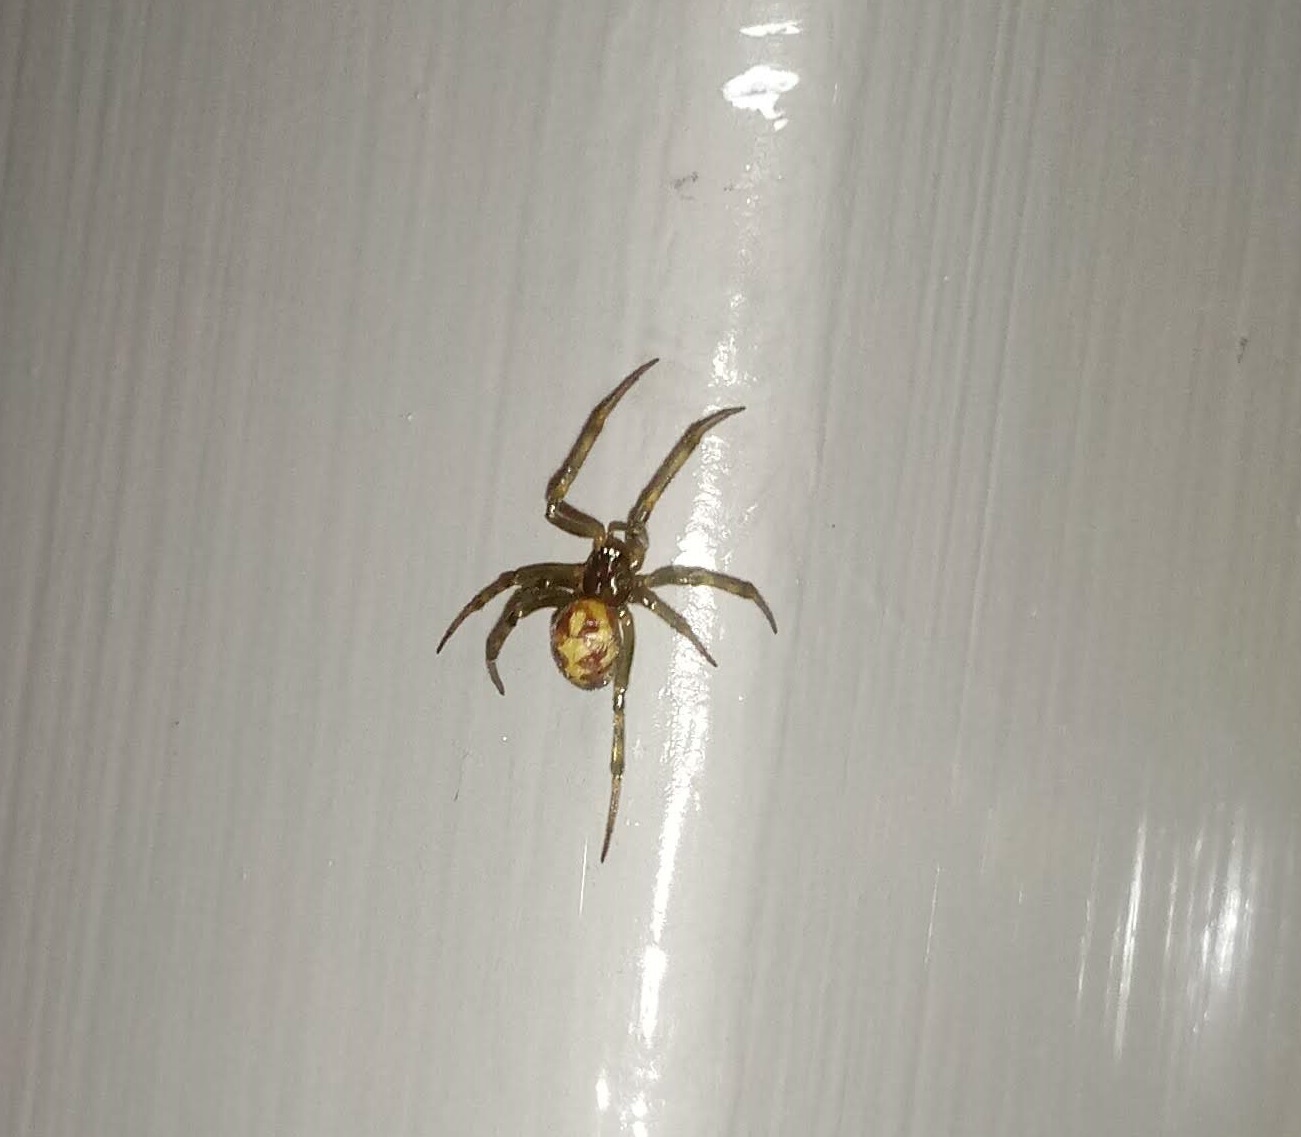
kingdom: Animalia
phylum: Arthropoda
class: Arachnida
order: Araneae
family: Theridiidae
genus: Steatoda
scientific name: Steatoda triangulosa
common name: Triangulate bud spider
